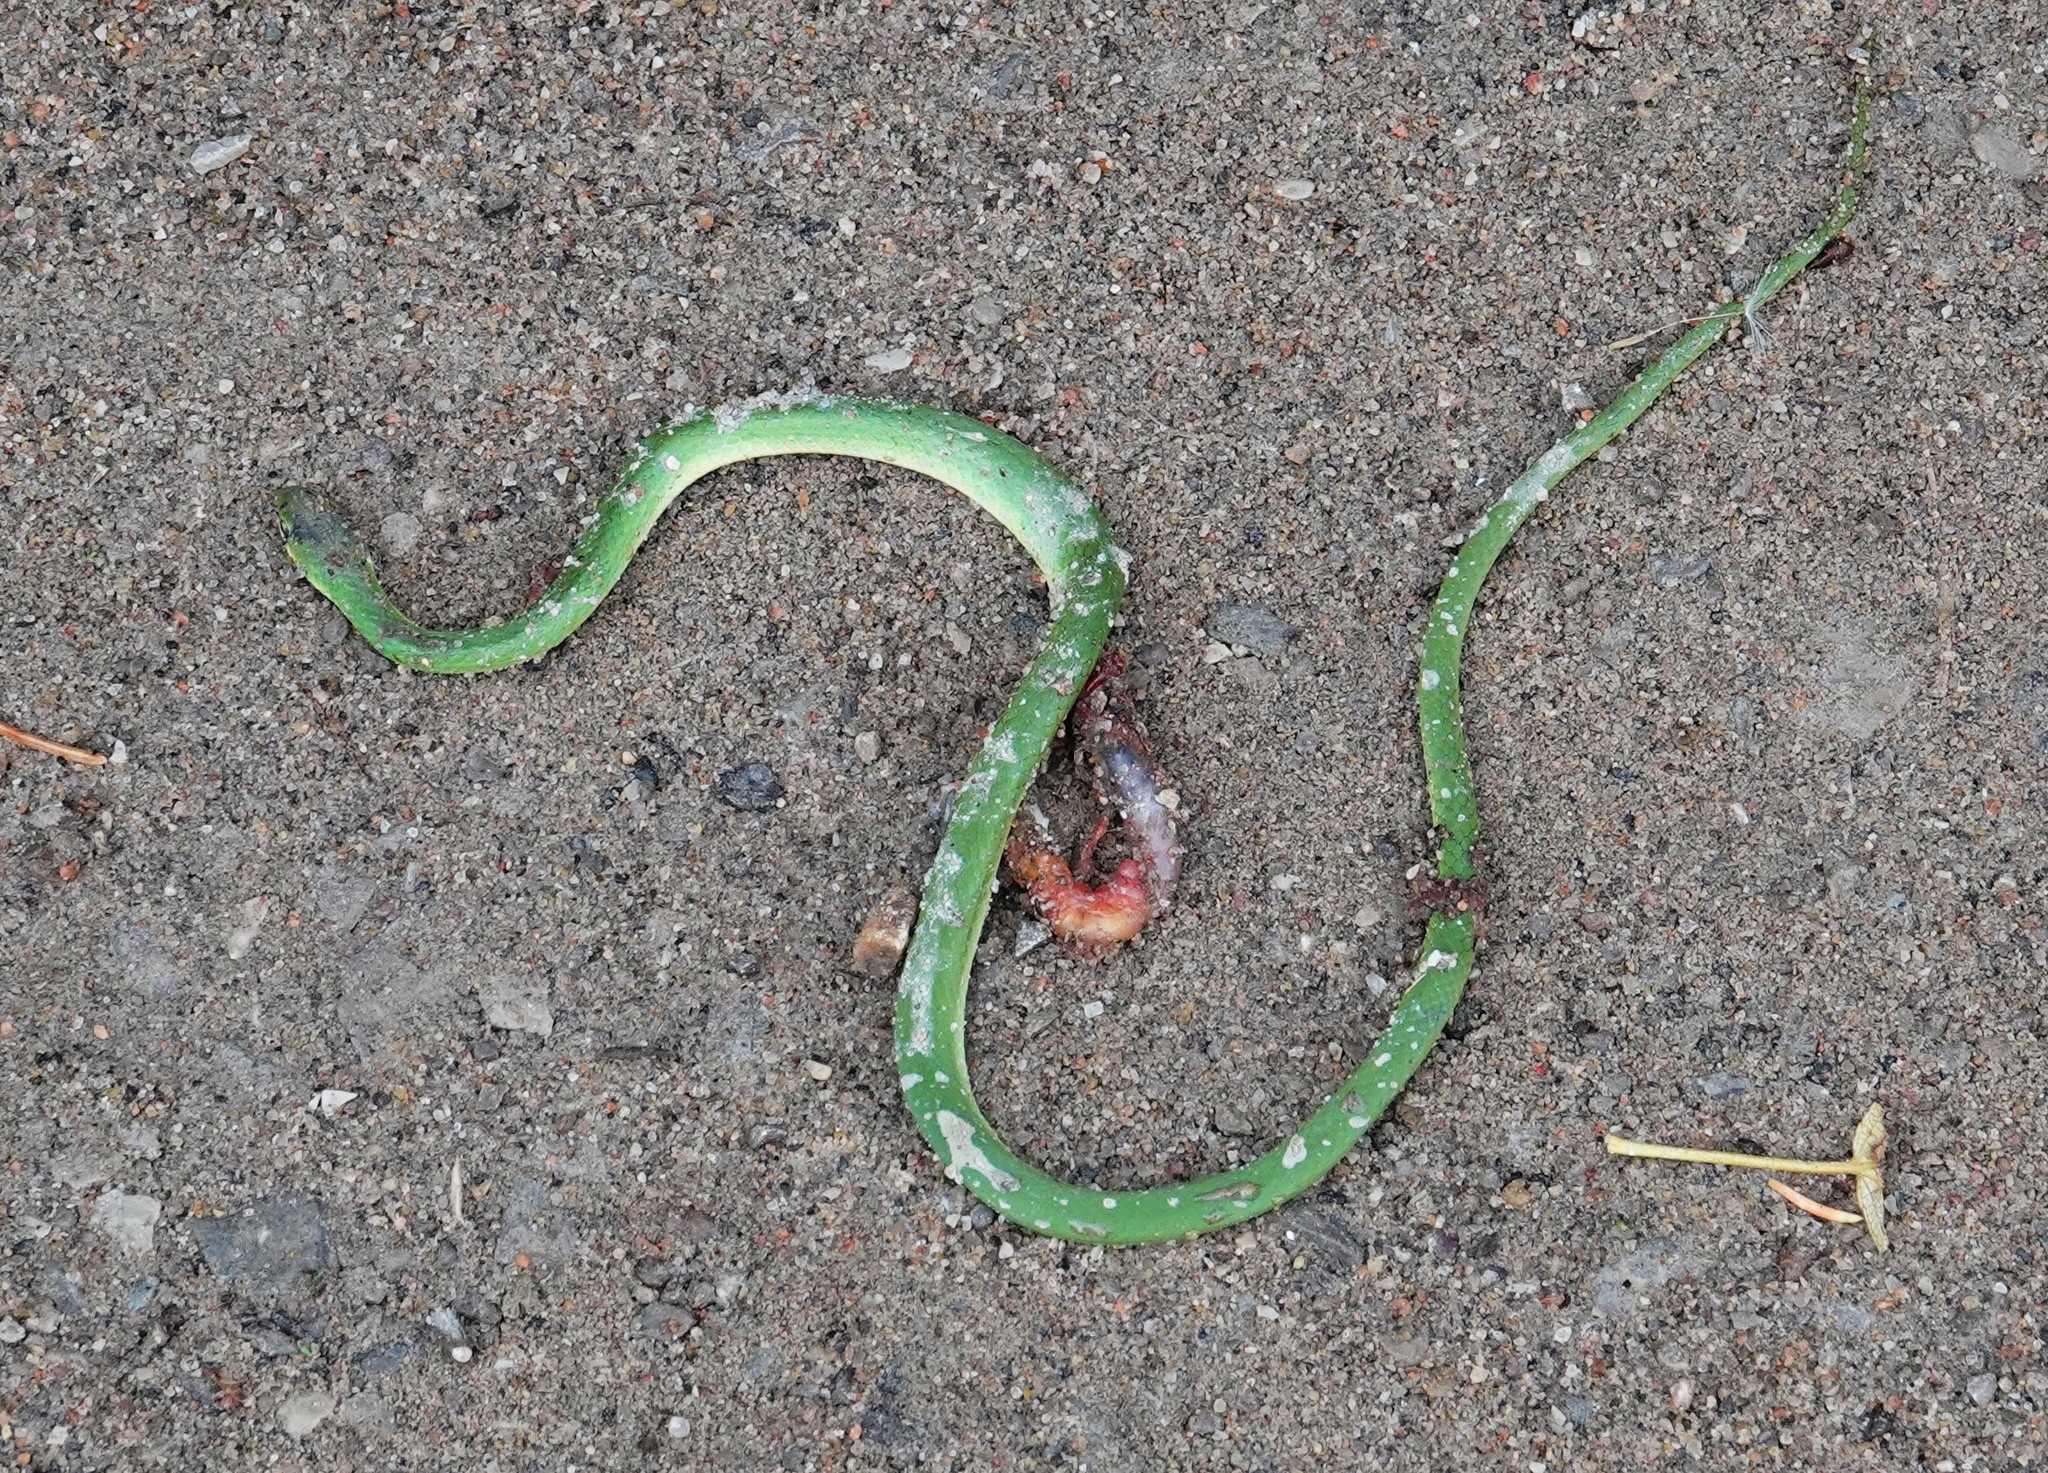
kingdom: Animalia
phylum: Chordata
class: Squamata
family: Colubridae
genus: Opheodrys
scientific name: Opheodrys vernalis
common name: Smooth green snake
